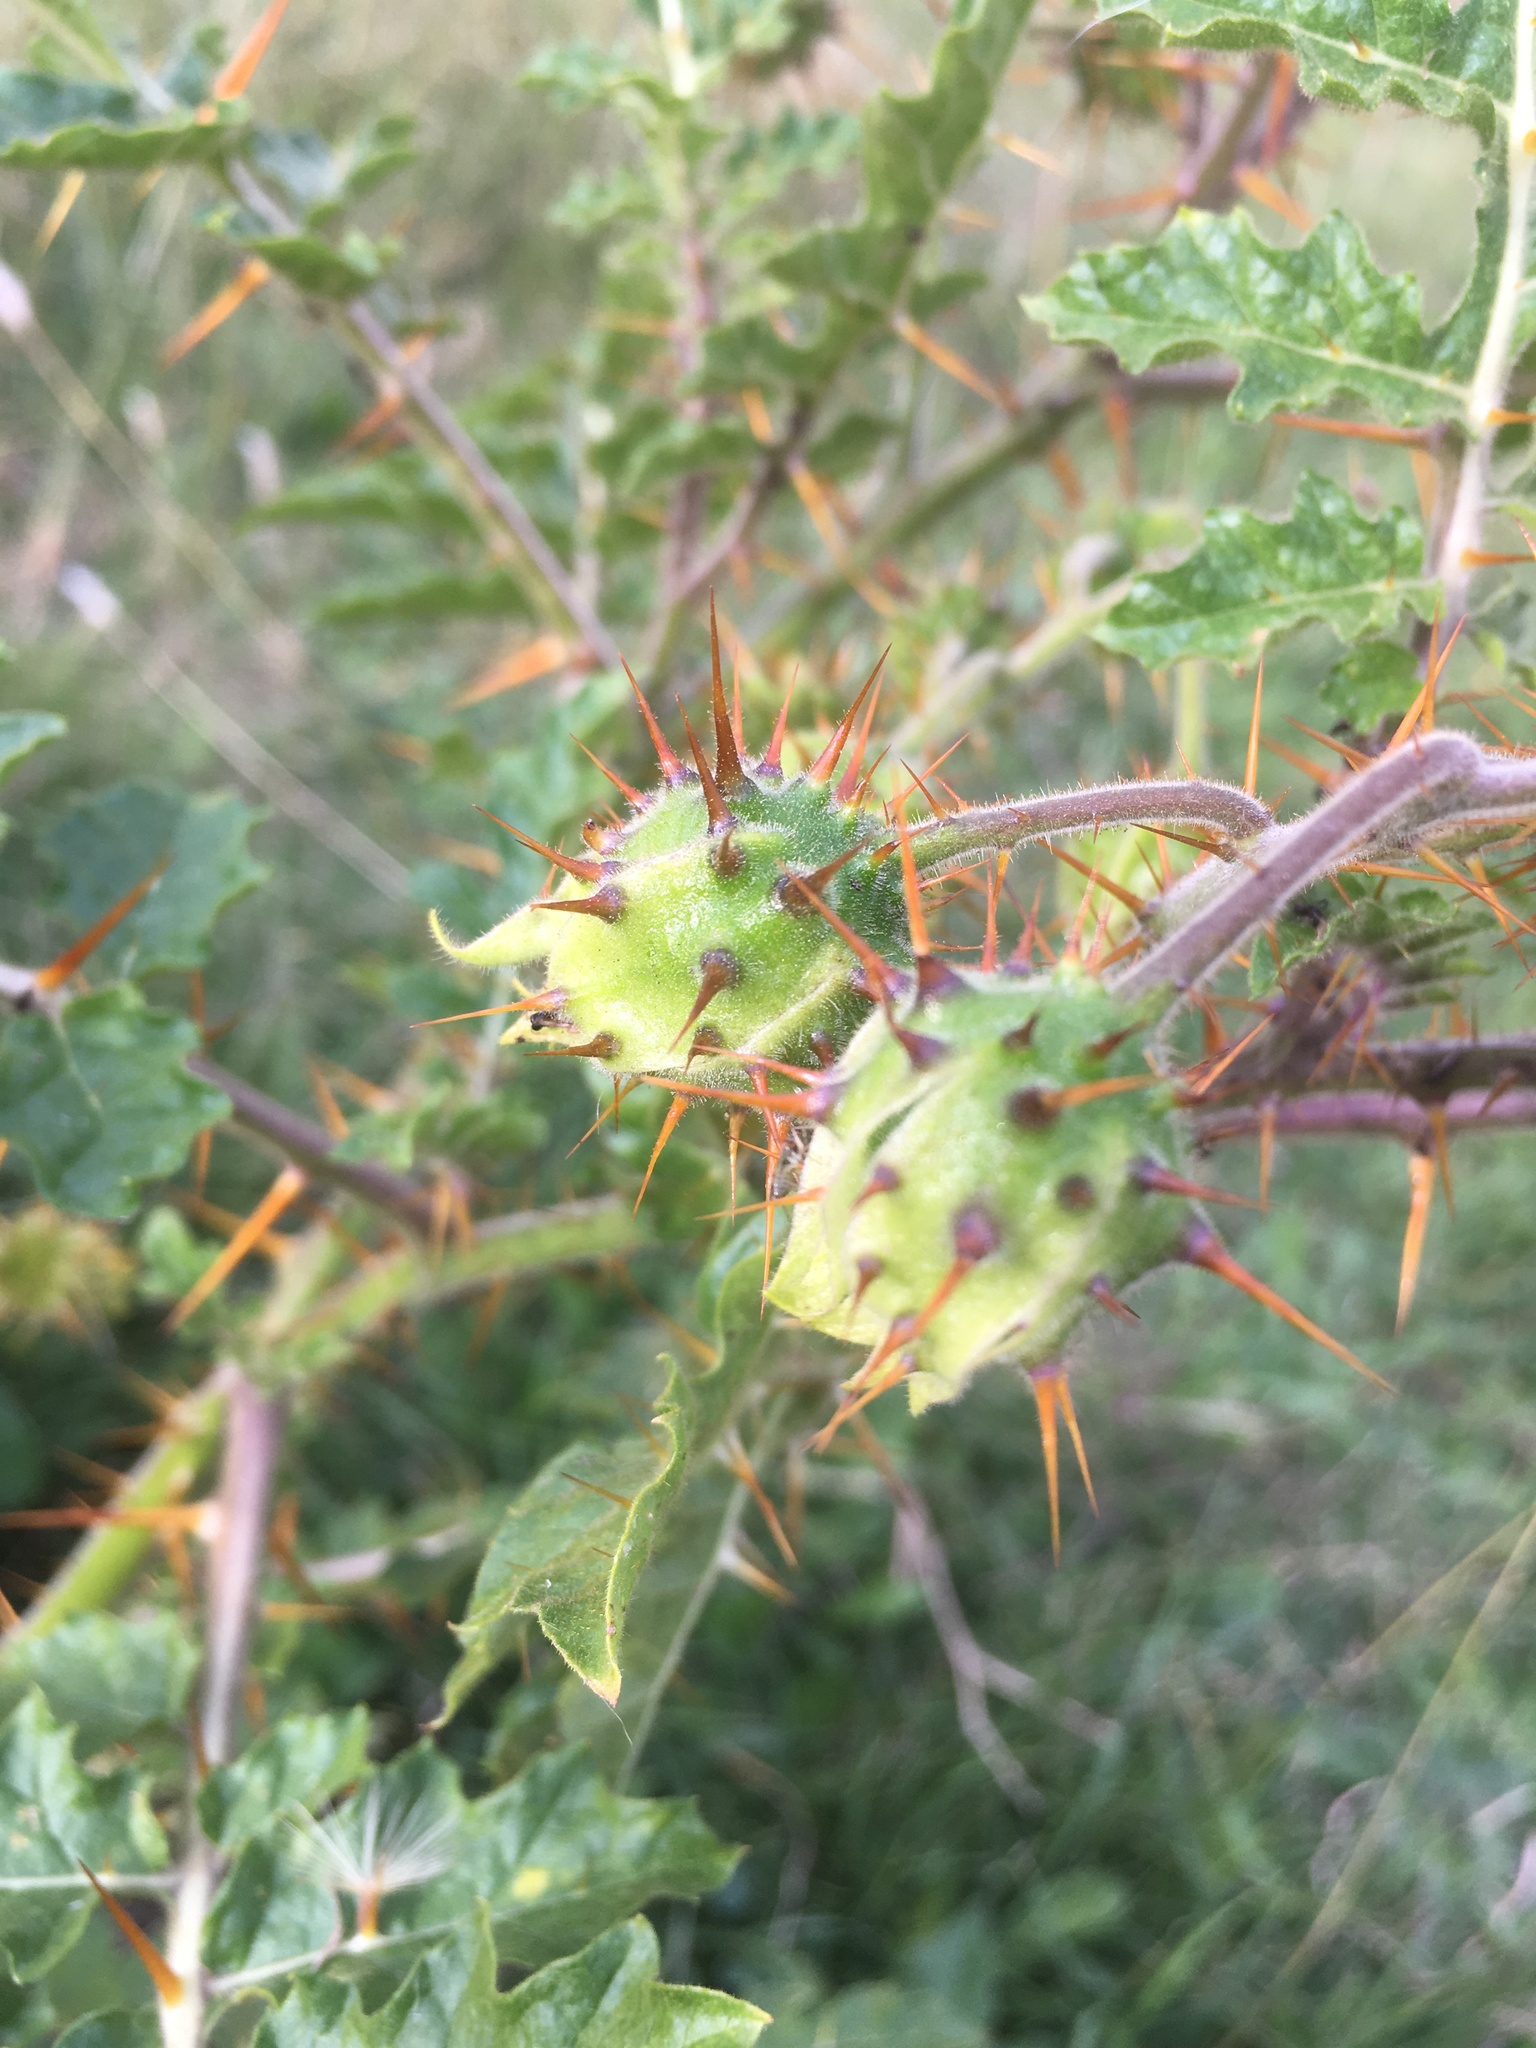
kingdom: Plantae
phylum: Tracheophyta
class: Magnoliopsida
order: Solanales
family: Solanaceae
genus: Solanum
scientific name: Solanum sisymbriifolium
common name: Red buffalo-bur
